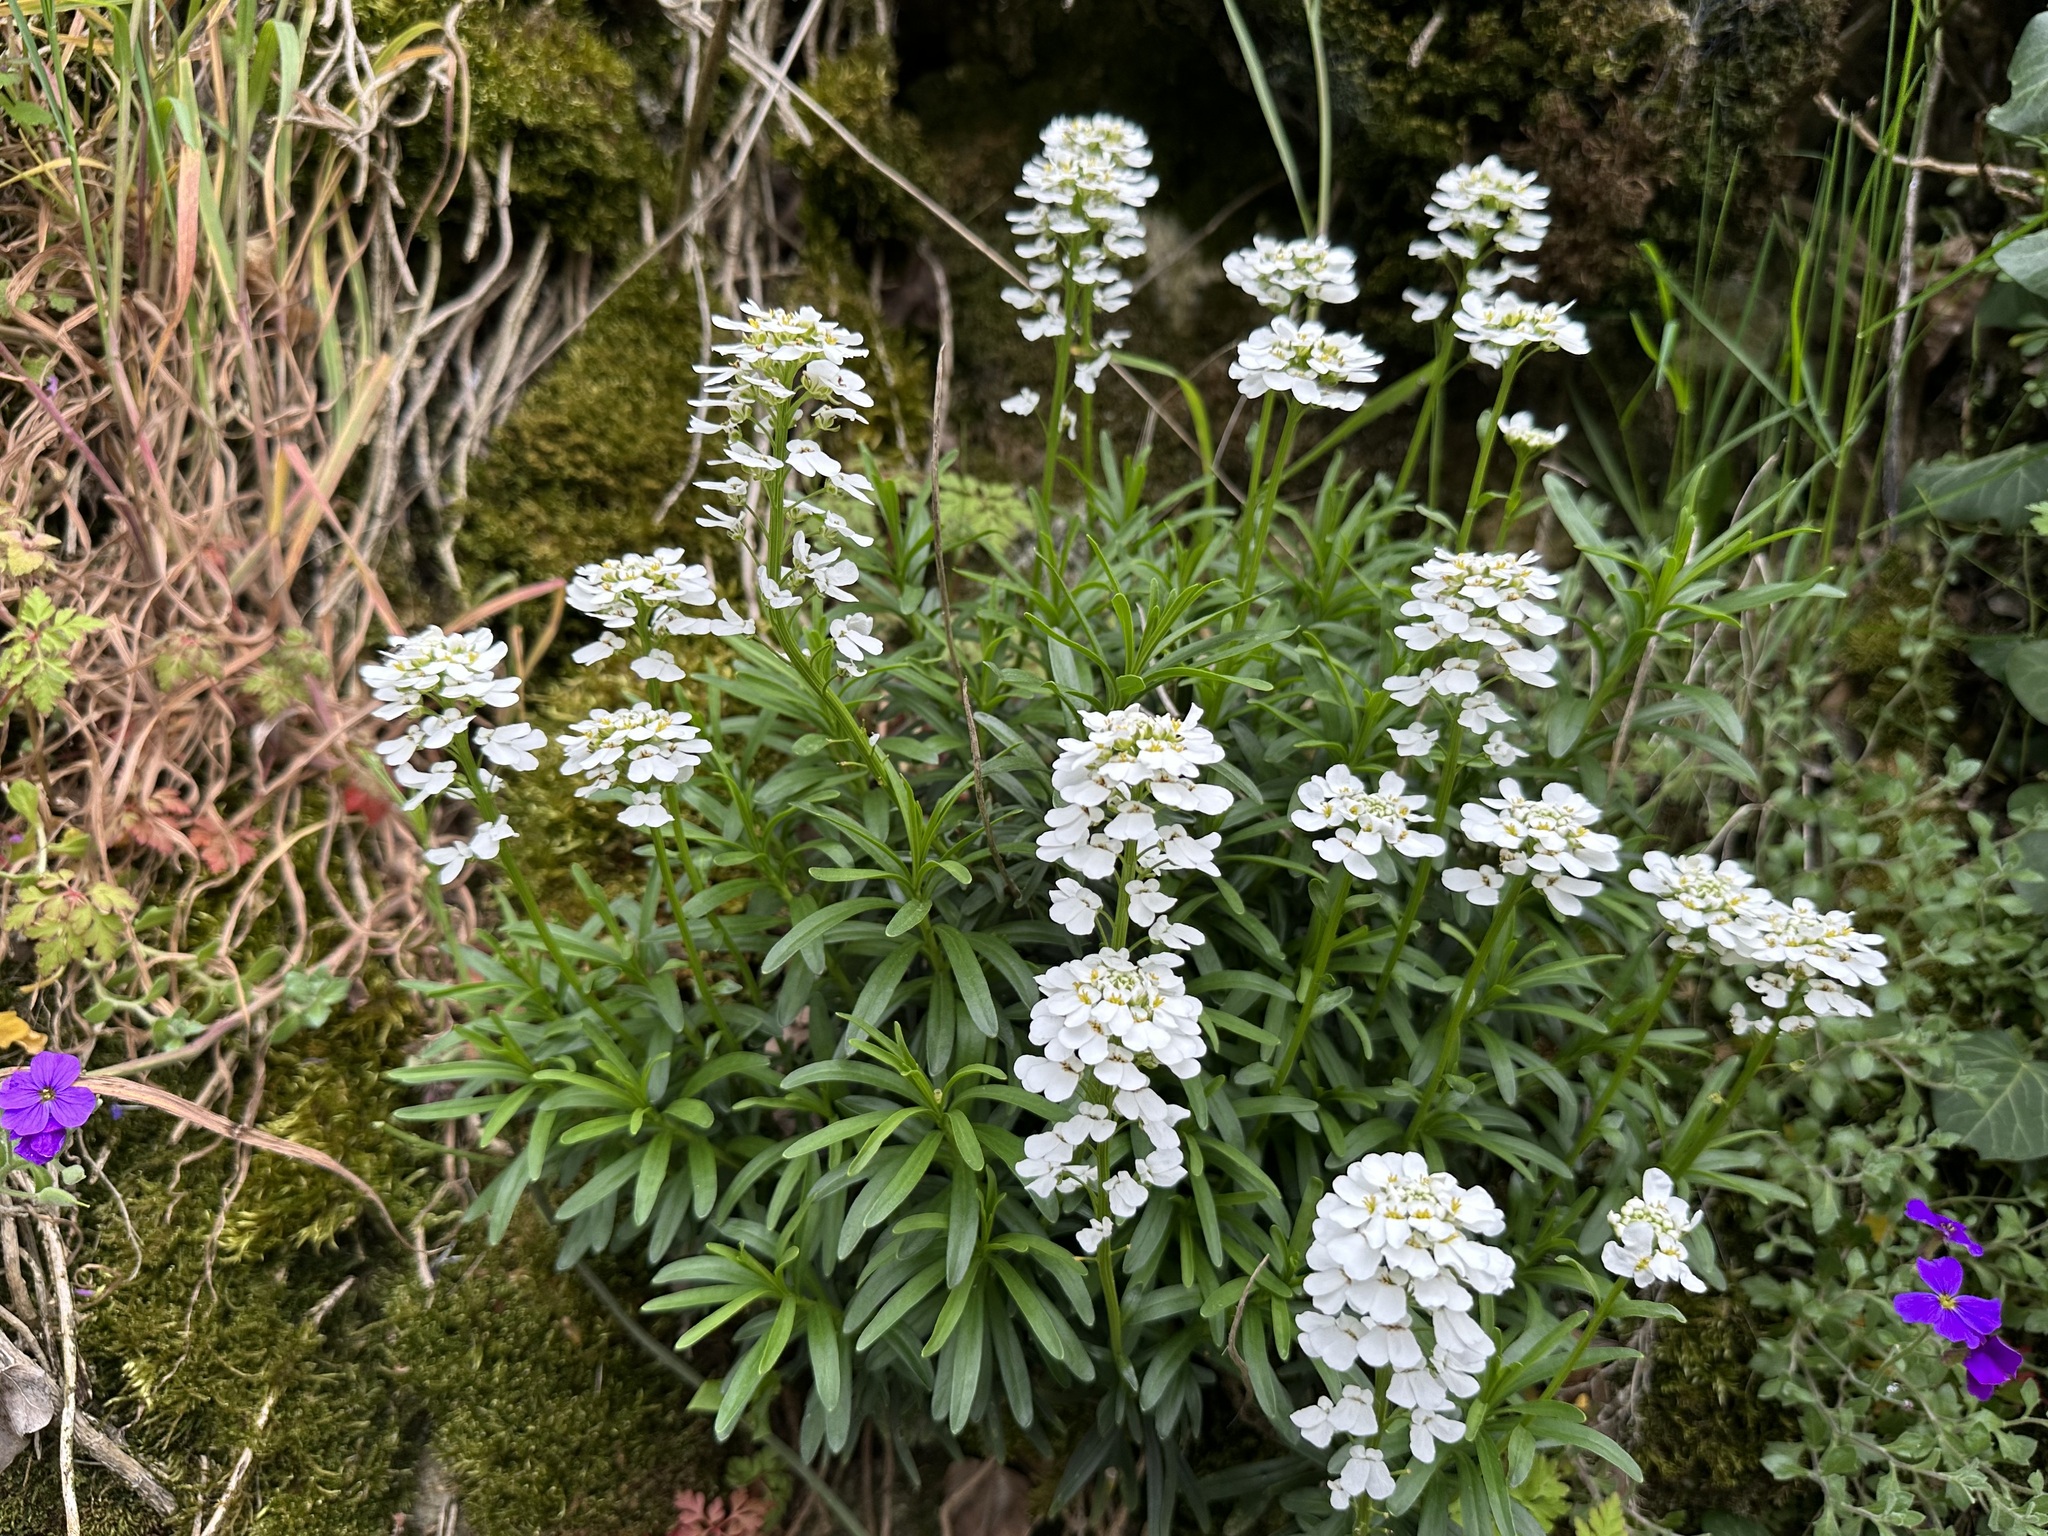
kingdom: Plantae
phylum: Tracheophyta
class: Magnoliopsida
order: Brassicales
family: Brassicaceae
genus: Iberis
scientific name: Iberis sempervirens
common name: Evergreen candytuft
